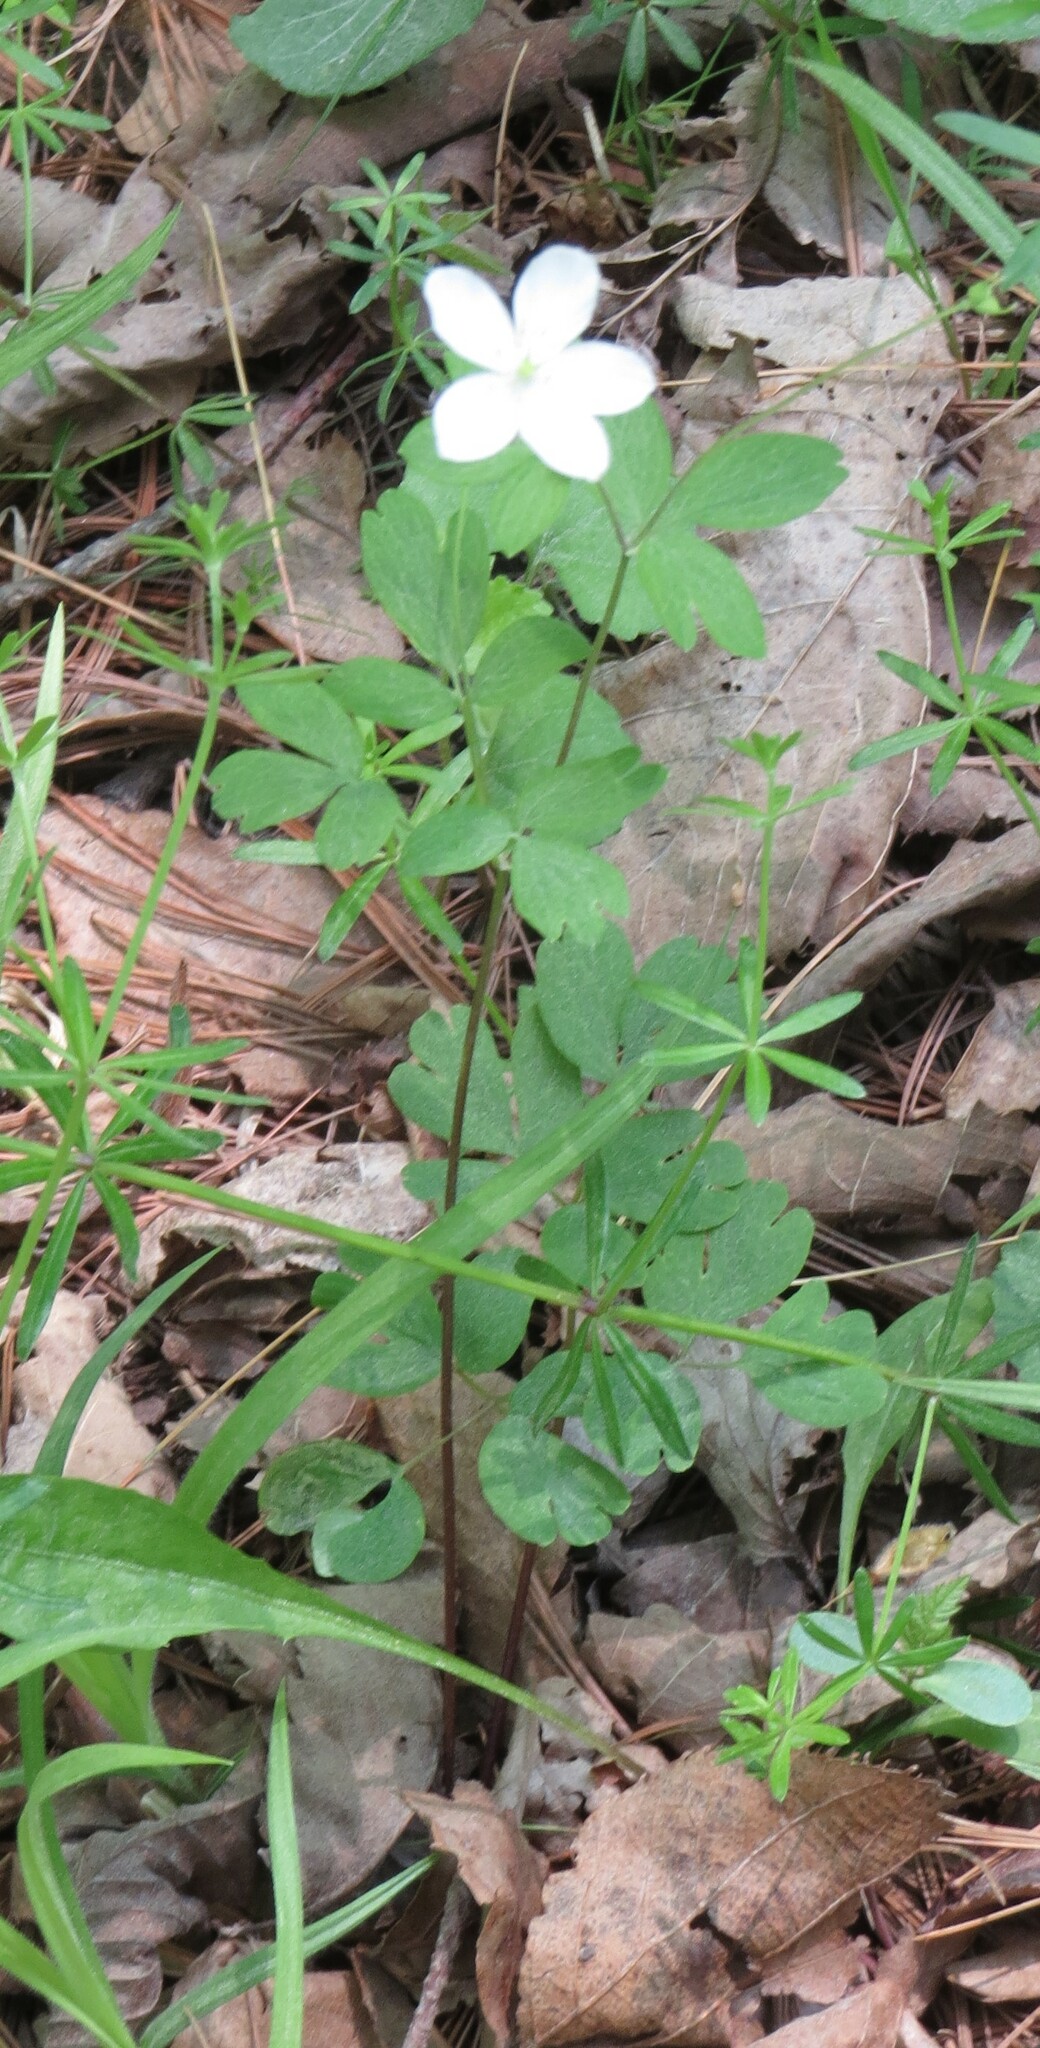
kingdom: Plantae
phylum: Tracheophyta
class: Magnoliopsida
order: Ranunculales
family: Ranunculaceae
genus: Enemion
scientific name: Enemion biternatum
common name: Eastern false rue-anemone
